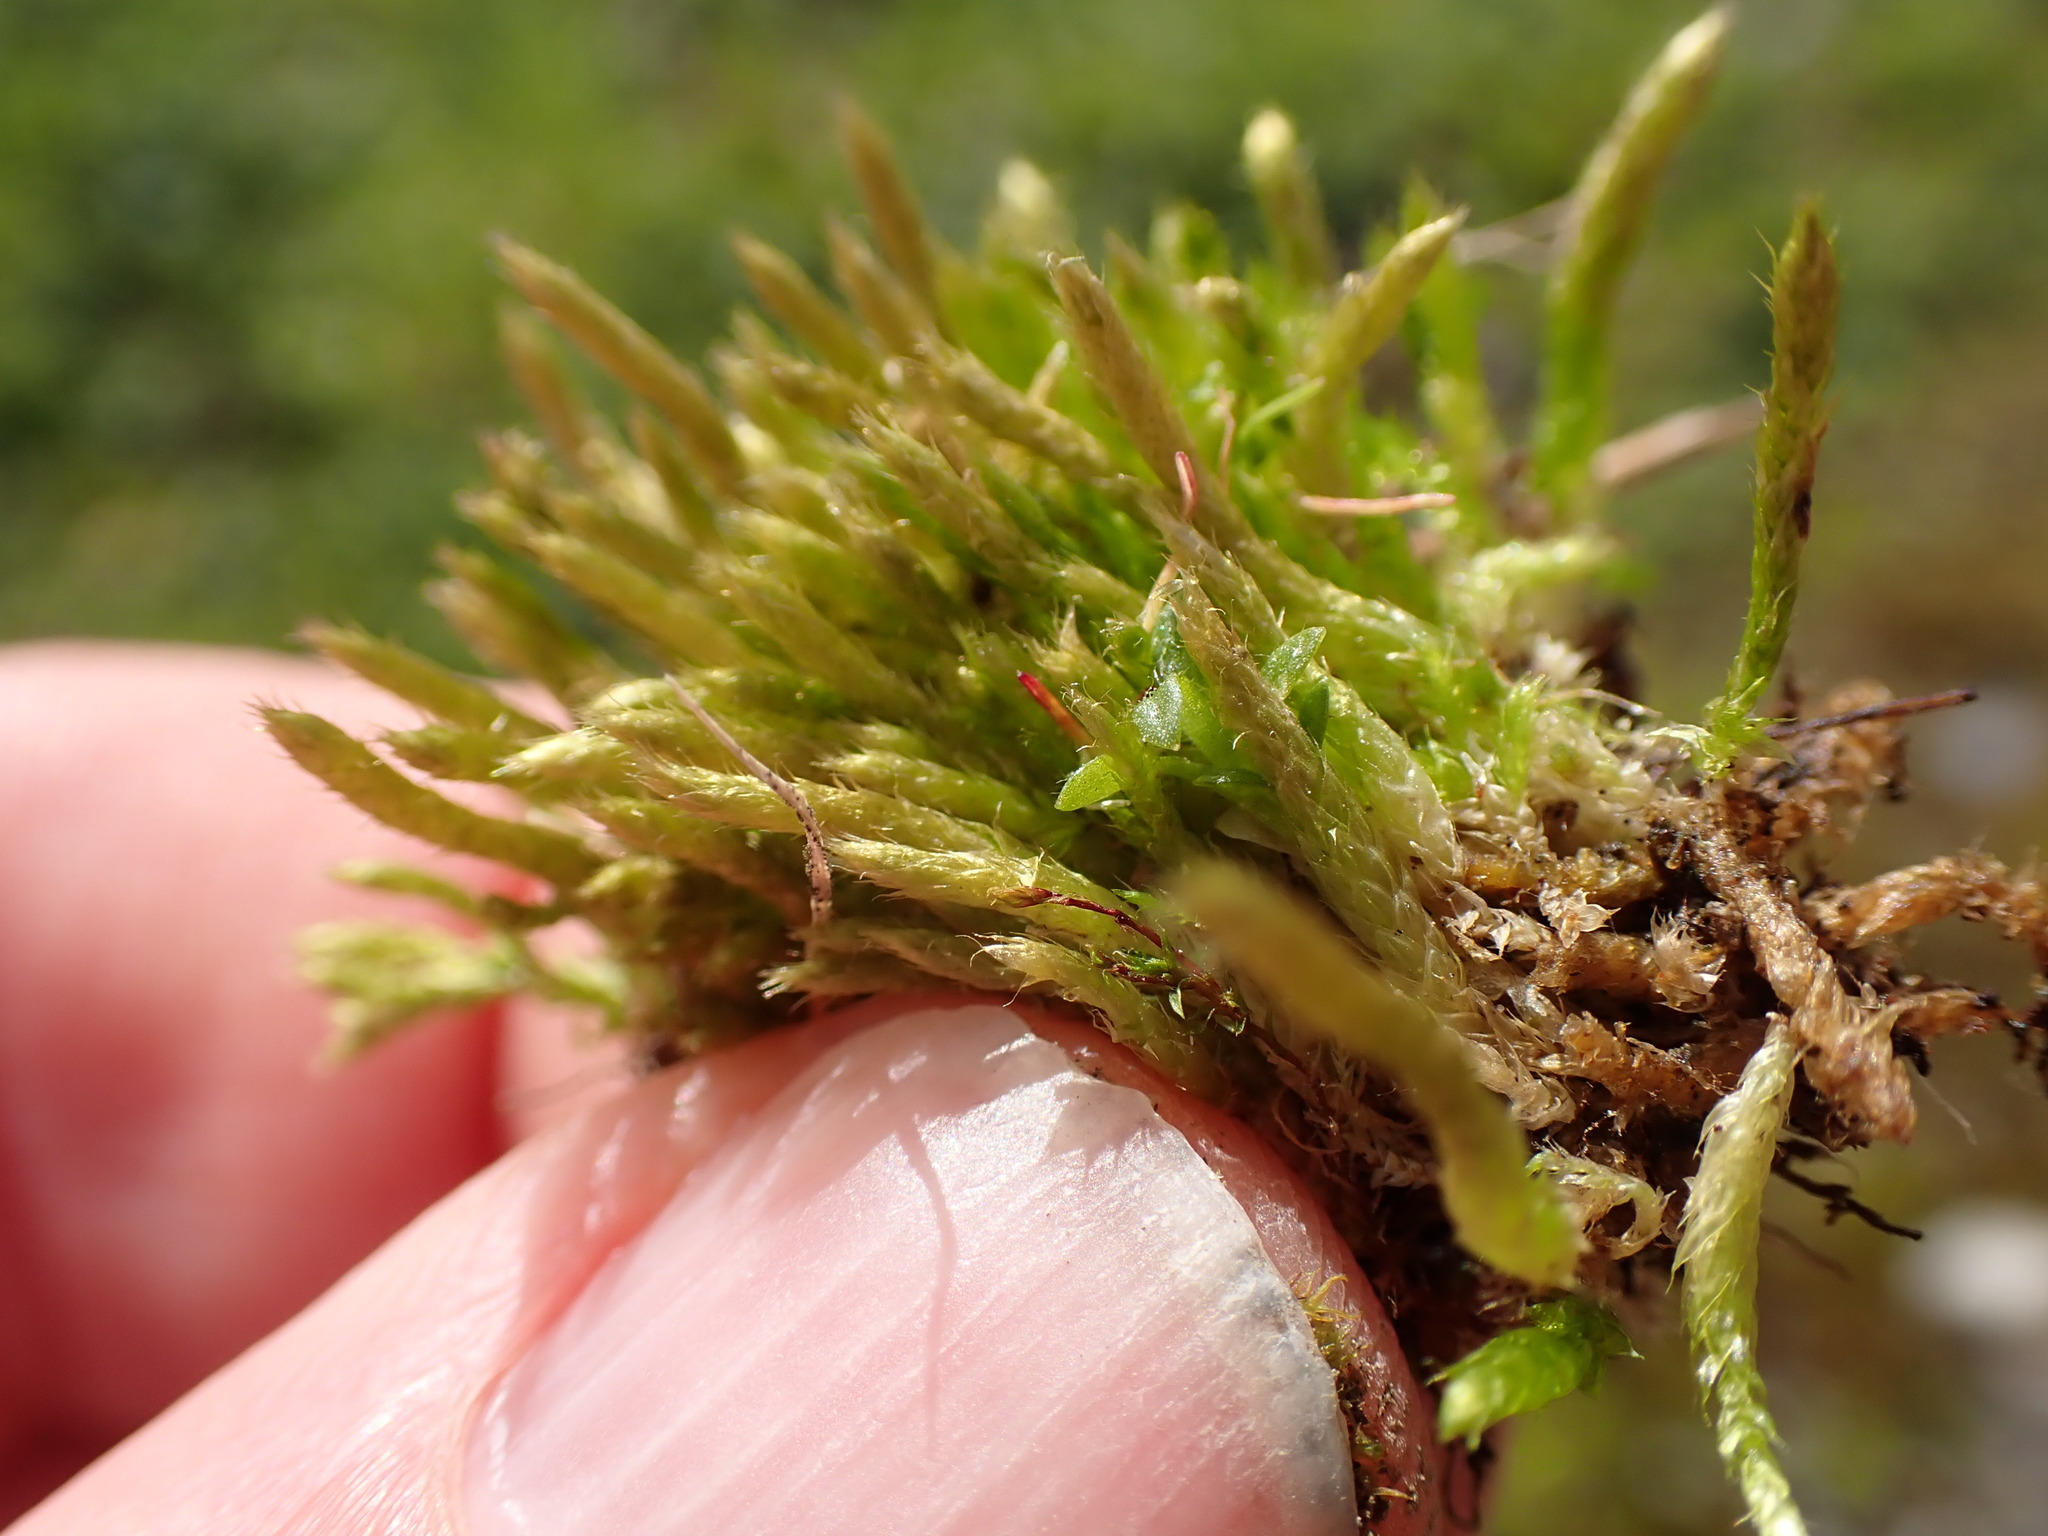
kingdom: Plantae
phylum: Bryophyta
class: Bryopsida
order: Hypnales
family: Brachytheciaceae
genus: Brachythecium
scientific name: Brachythecium albicans
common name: Whitish ragged moss
